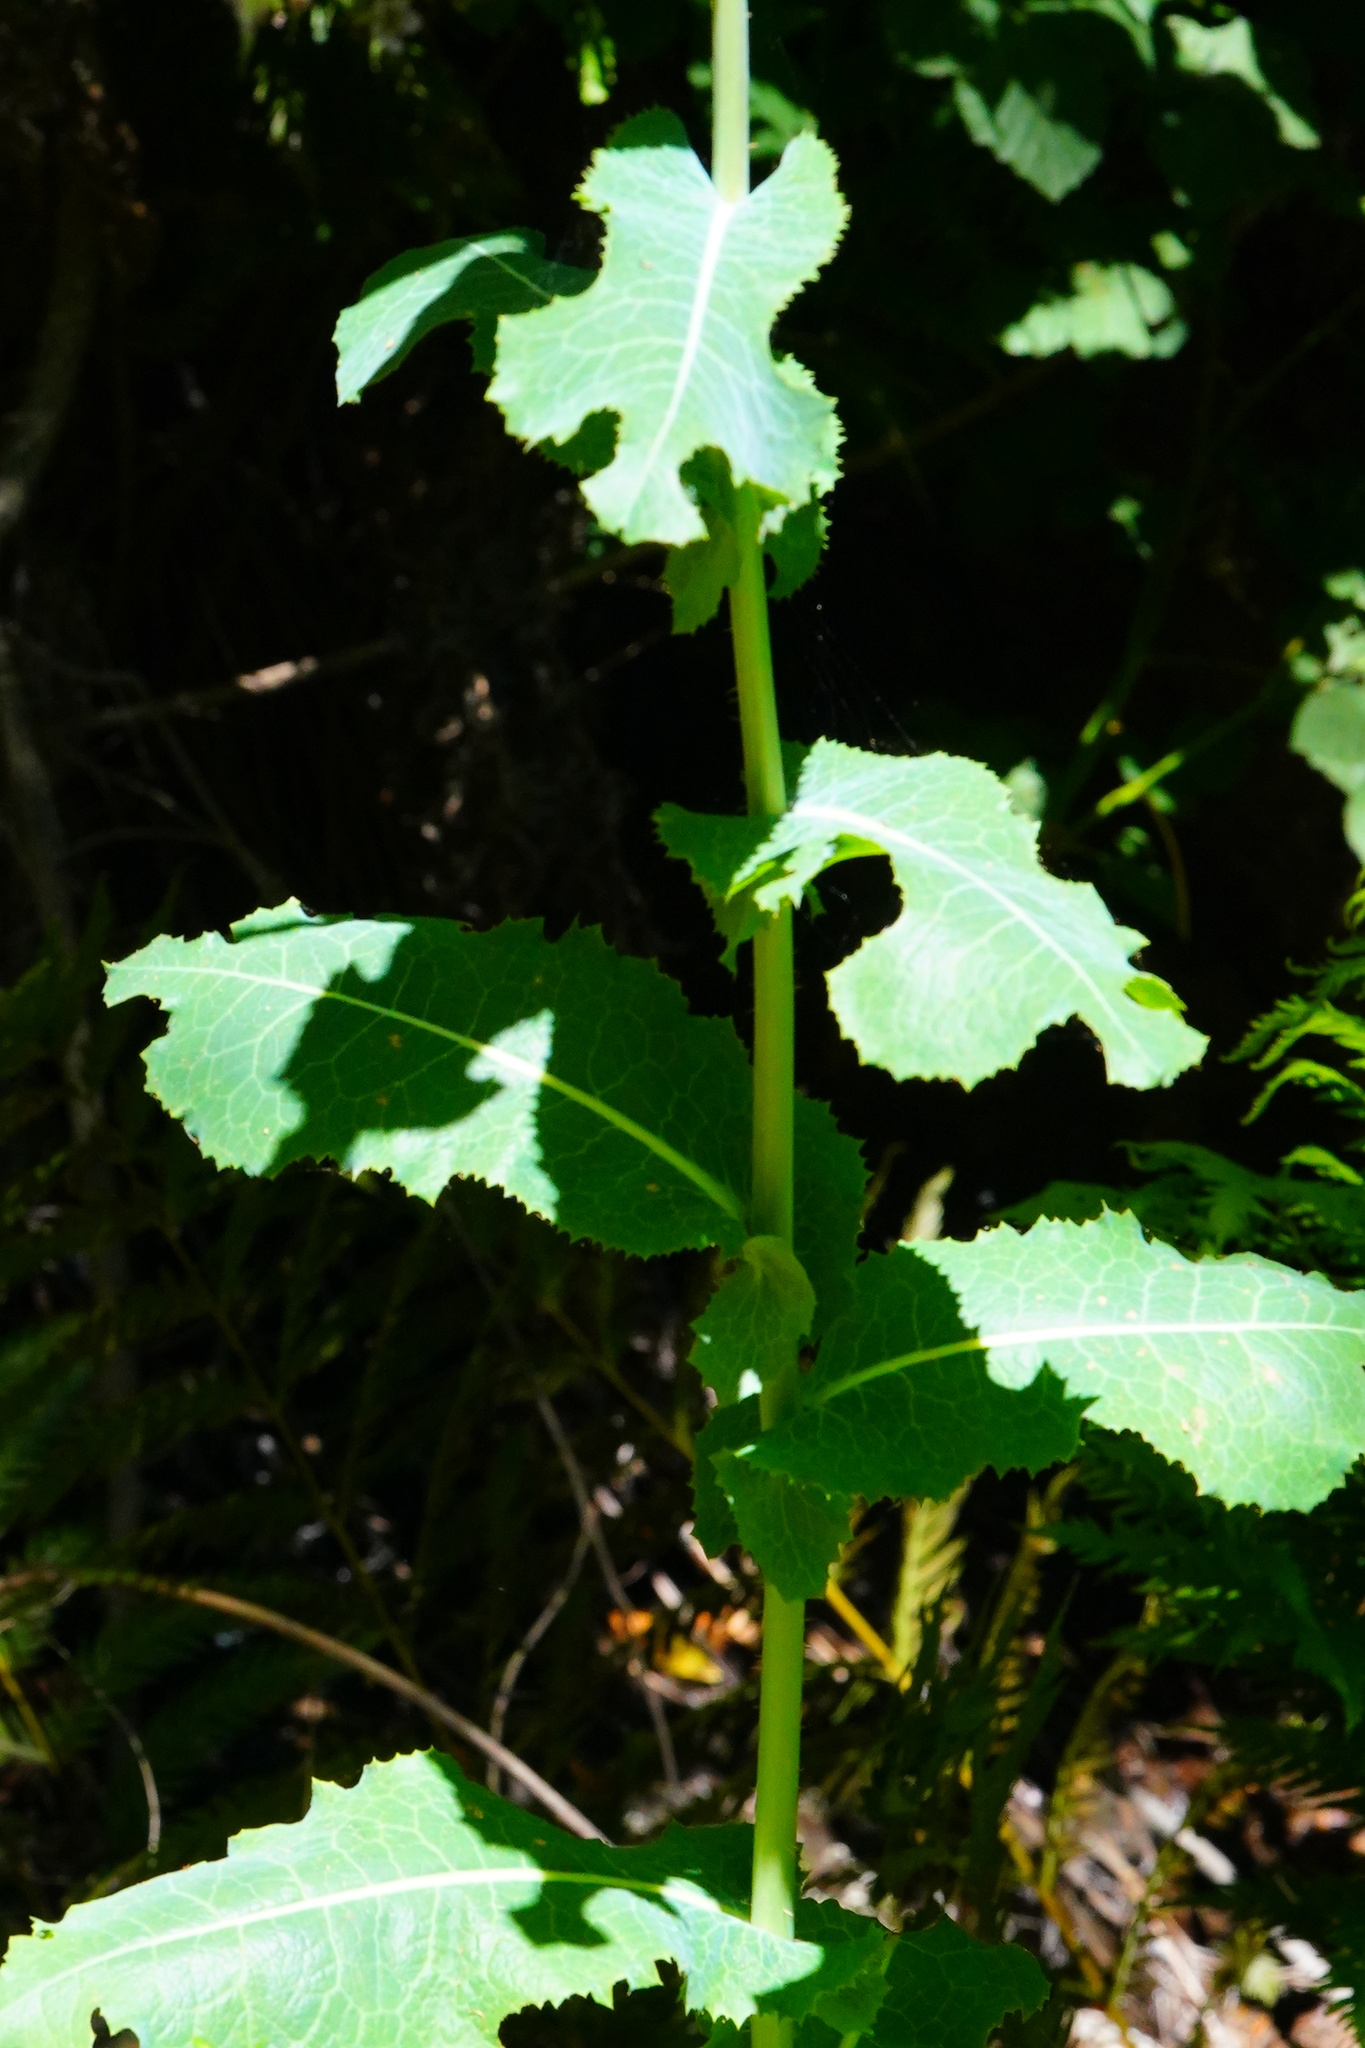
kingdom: Plantae
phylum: Tracheophyta
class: Magnoliopsida
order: Asterales
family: Asteraceae
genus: Lactuca
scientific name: Lactuca virosa
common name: Great lettuce
